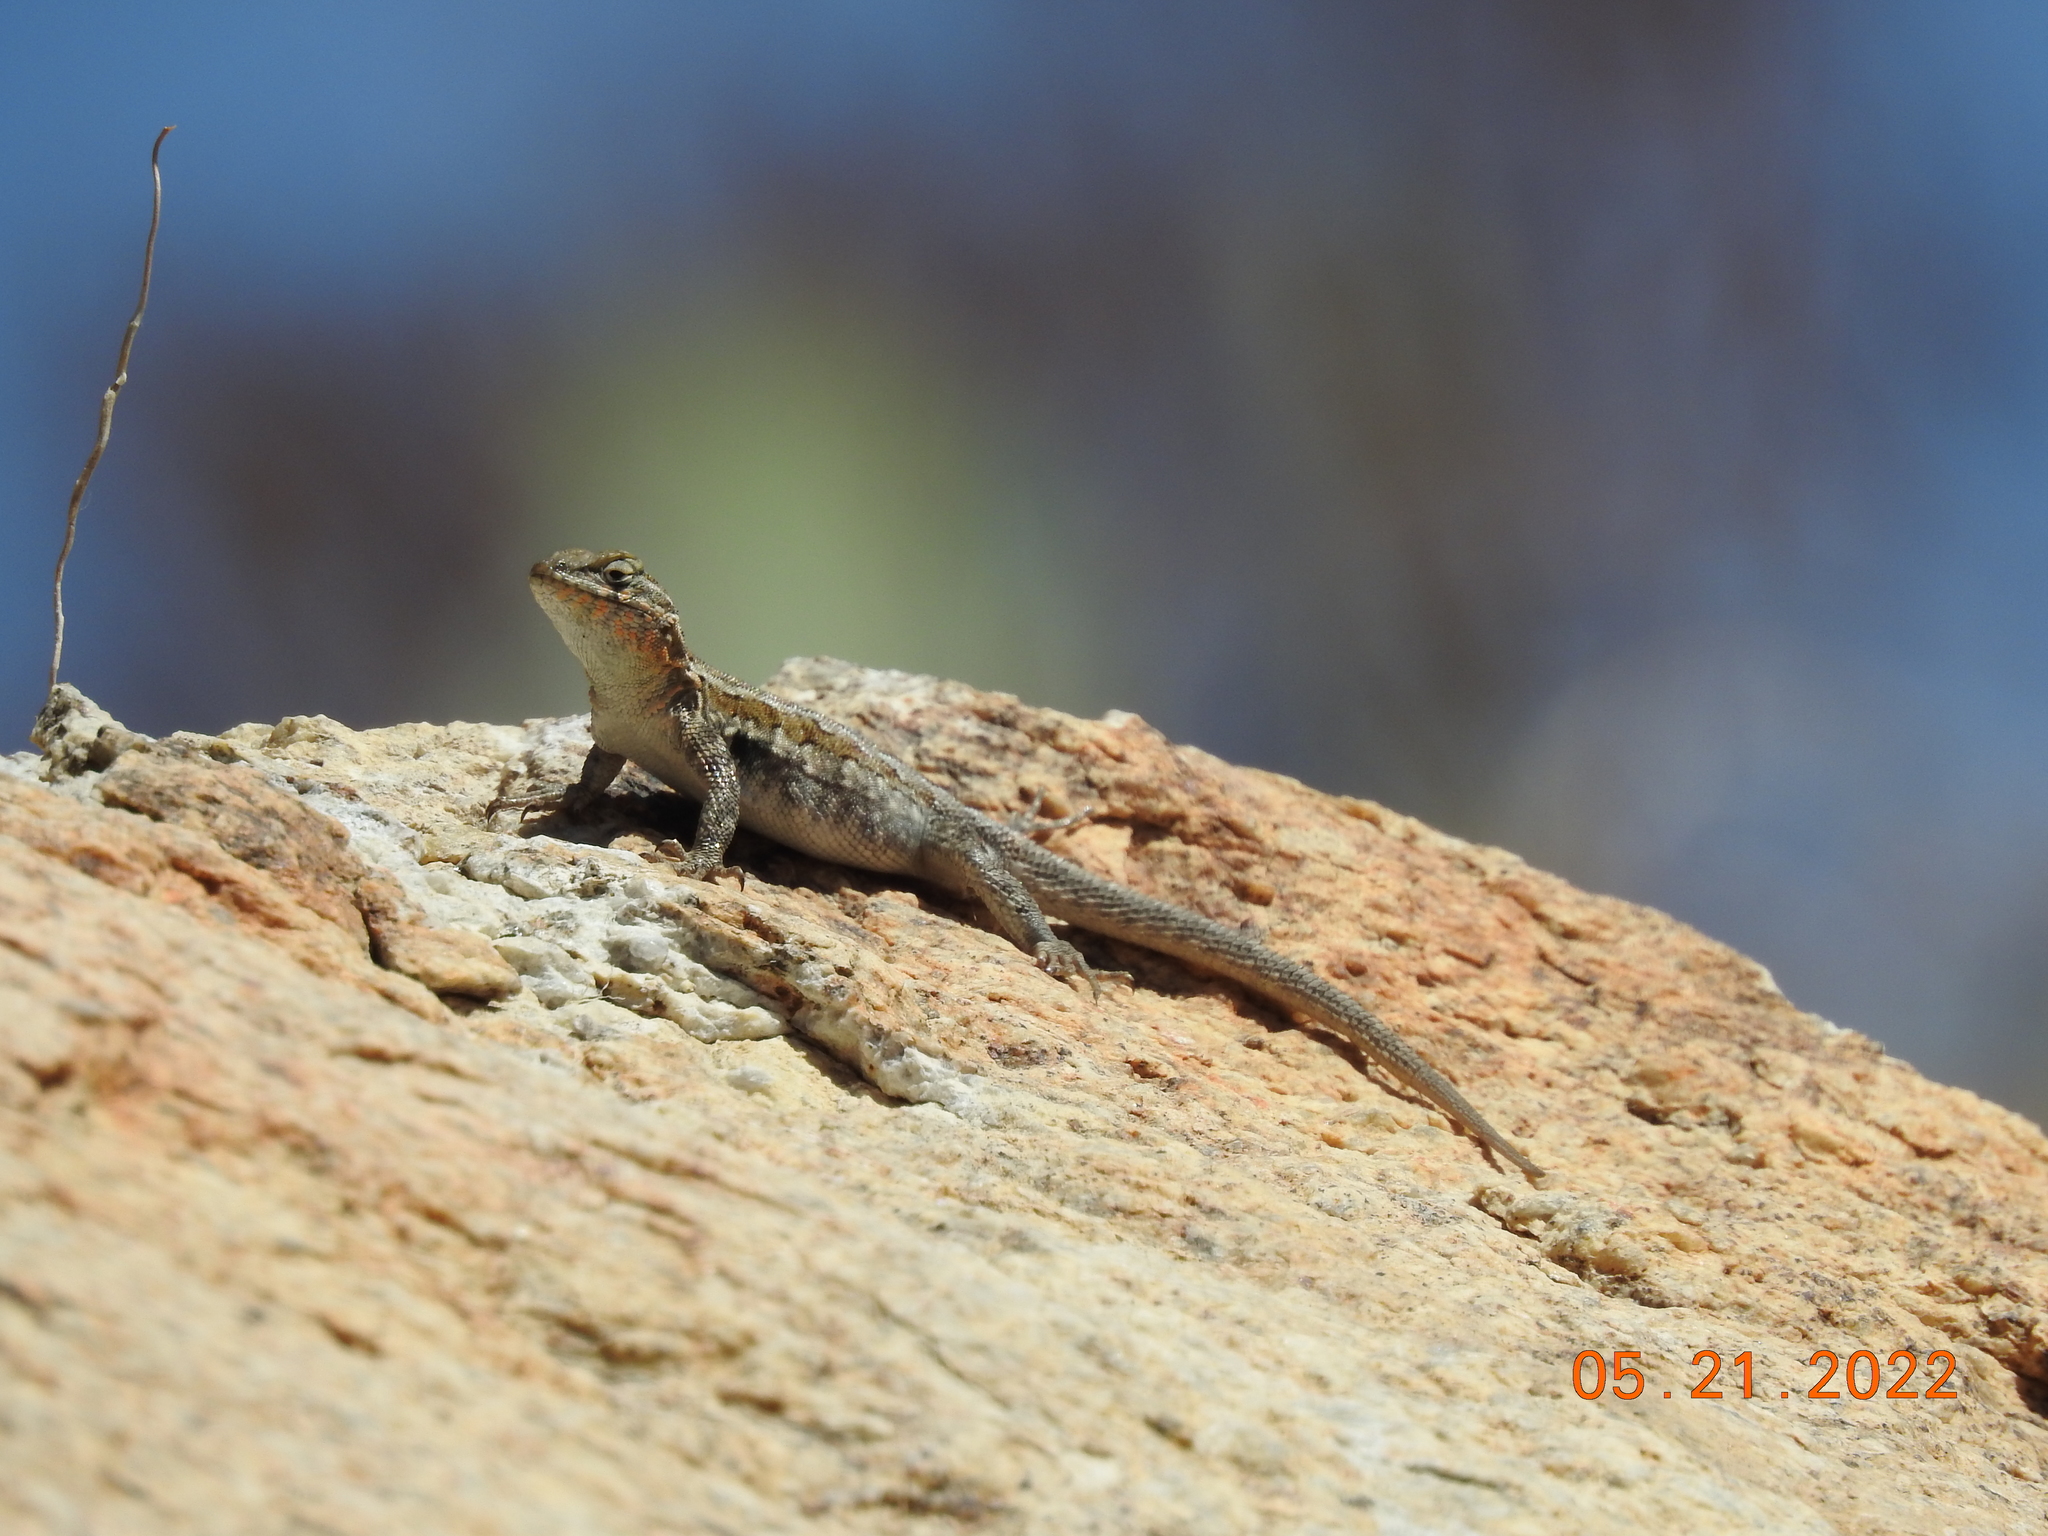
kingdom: Animalia
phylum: Chordata
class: Squamata
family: Phrynosomatidae
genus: Uta
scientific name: Uta stansburiana
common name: Side-blotched lizard
